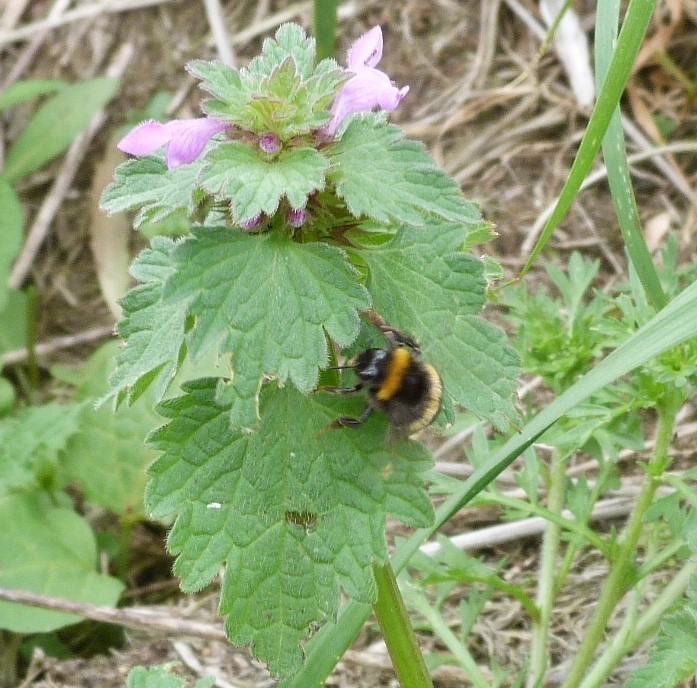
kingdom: Animalia
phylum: Arthropoda
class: Insecta
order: Hymenoptera
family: Apidae
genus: Bombus
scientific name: Bombus terrestris
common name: Buff-tailed bumblebee
